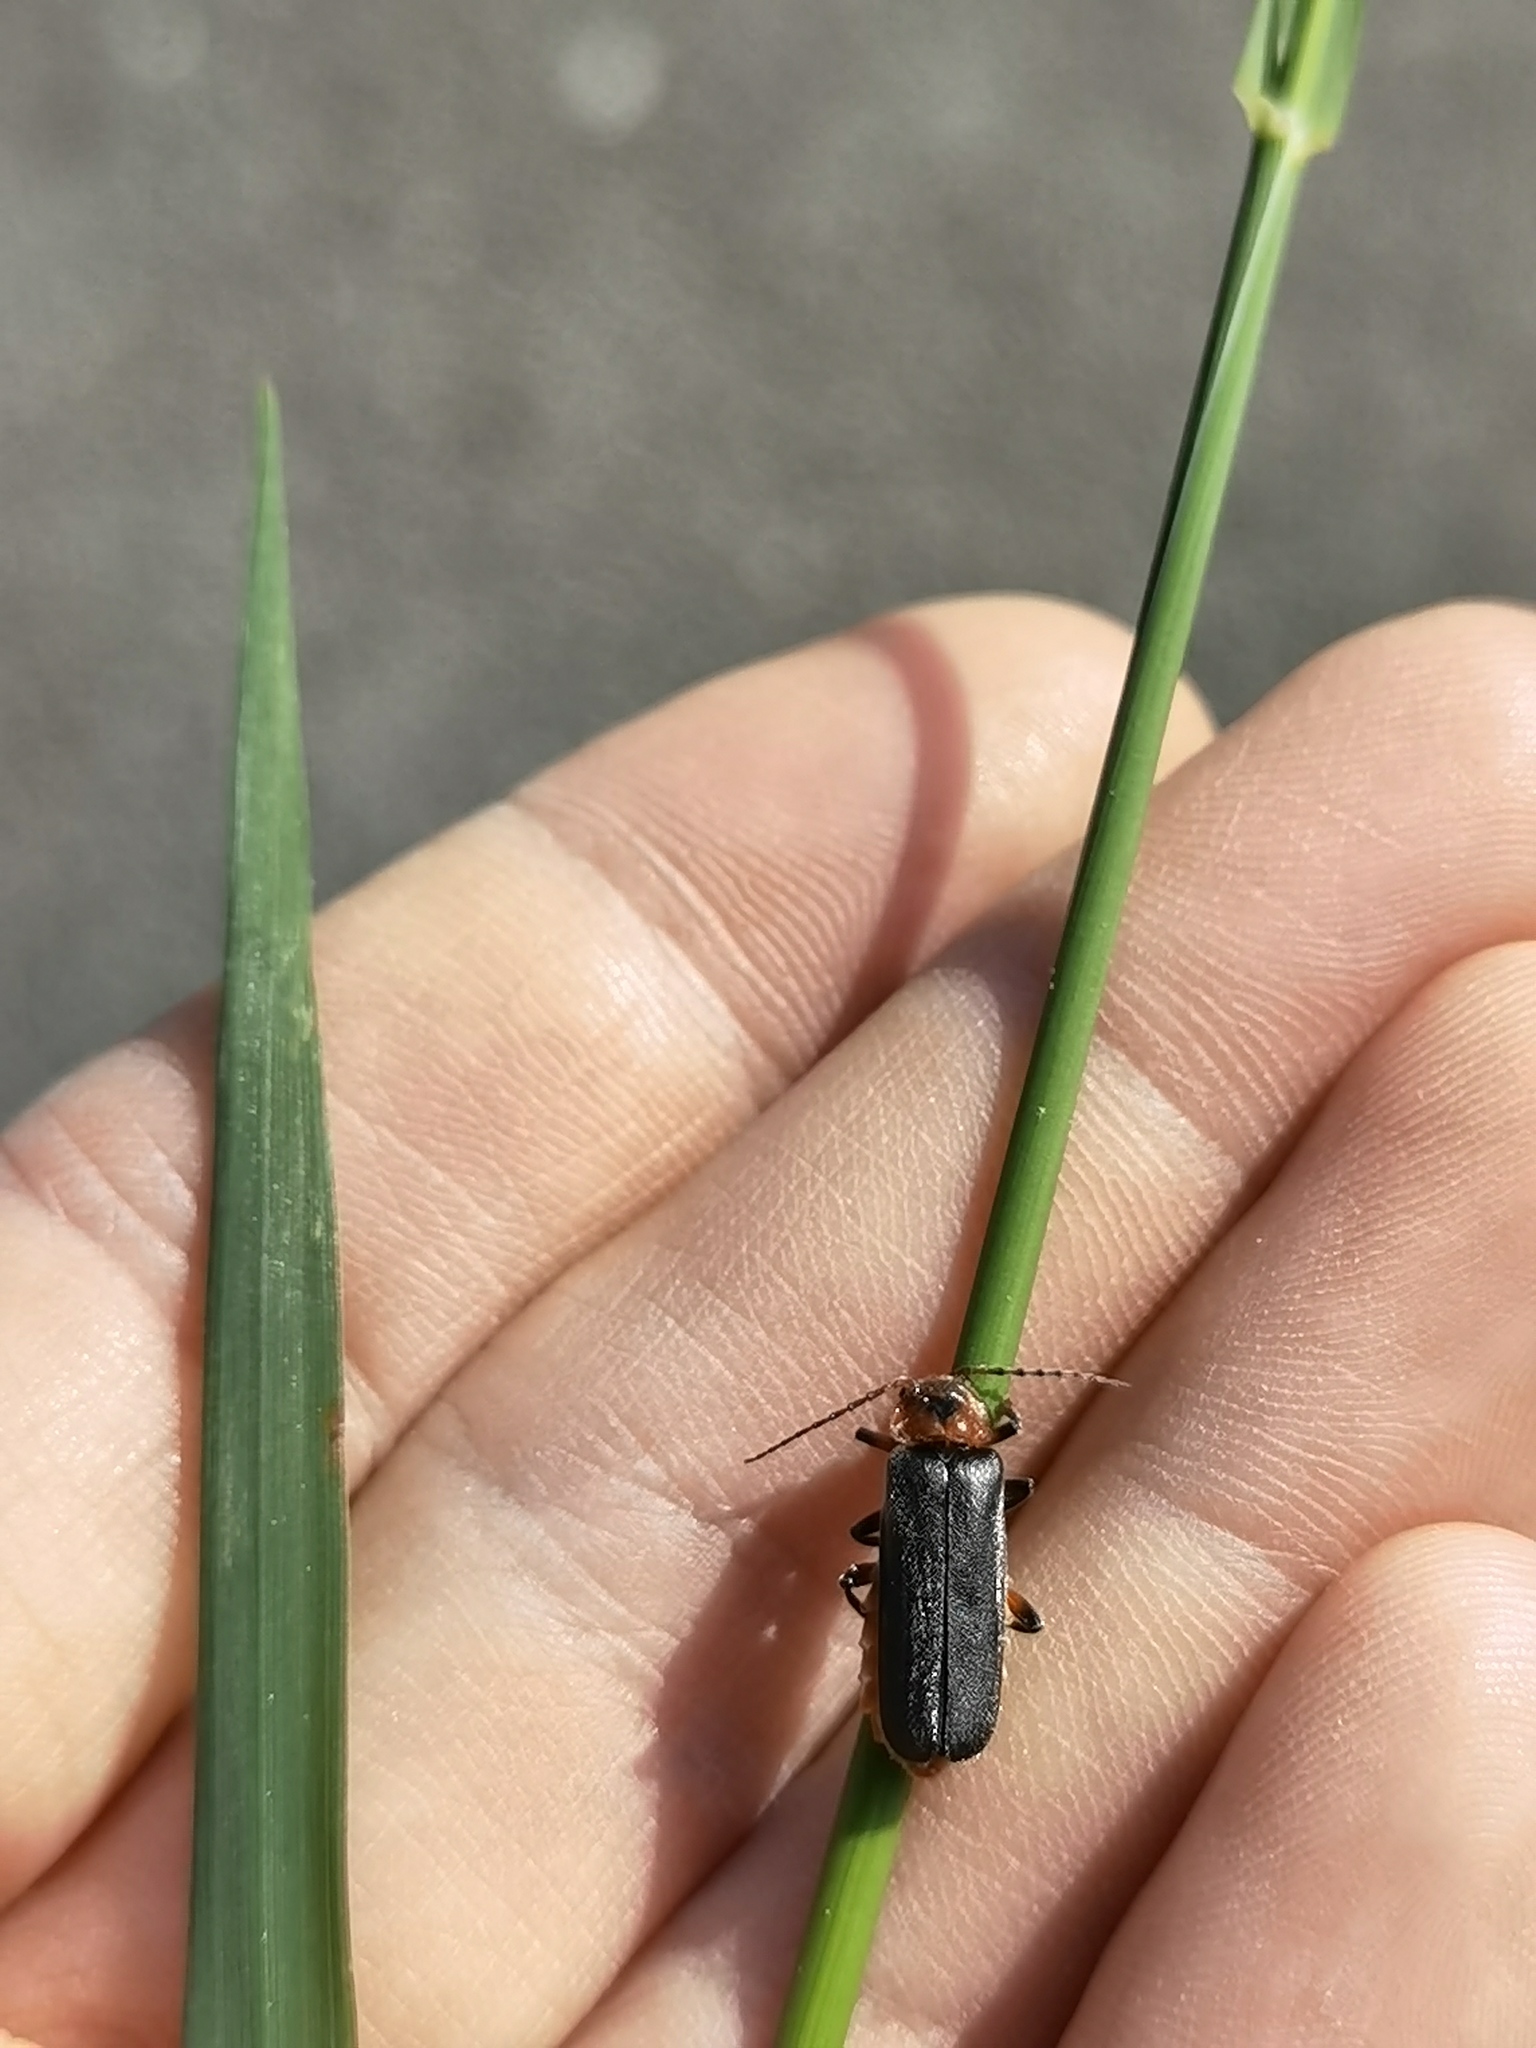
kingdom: Animalia
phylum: Arthropoda
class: Insecta
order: Coleoptera
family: Cantharidae
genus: Cantharis
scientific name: Cantharis rustica
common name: Soldier beetle
